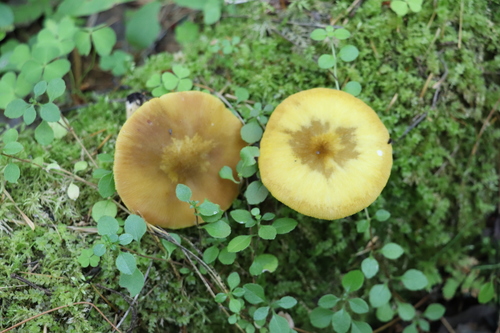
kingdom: Fungi
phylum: Basidiomycota
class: Agaricomycetes
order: Agaricales
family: Pluteaceae
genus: Pluteus
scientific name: Pluteus leoninus
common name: Lion shield
